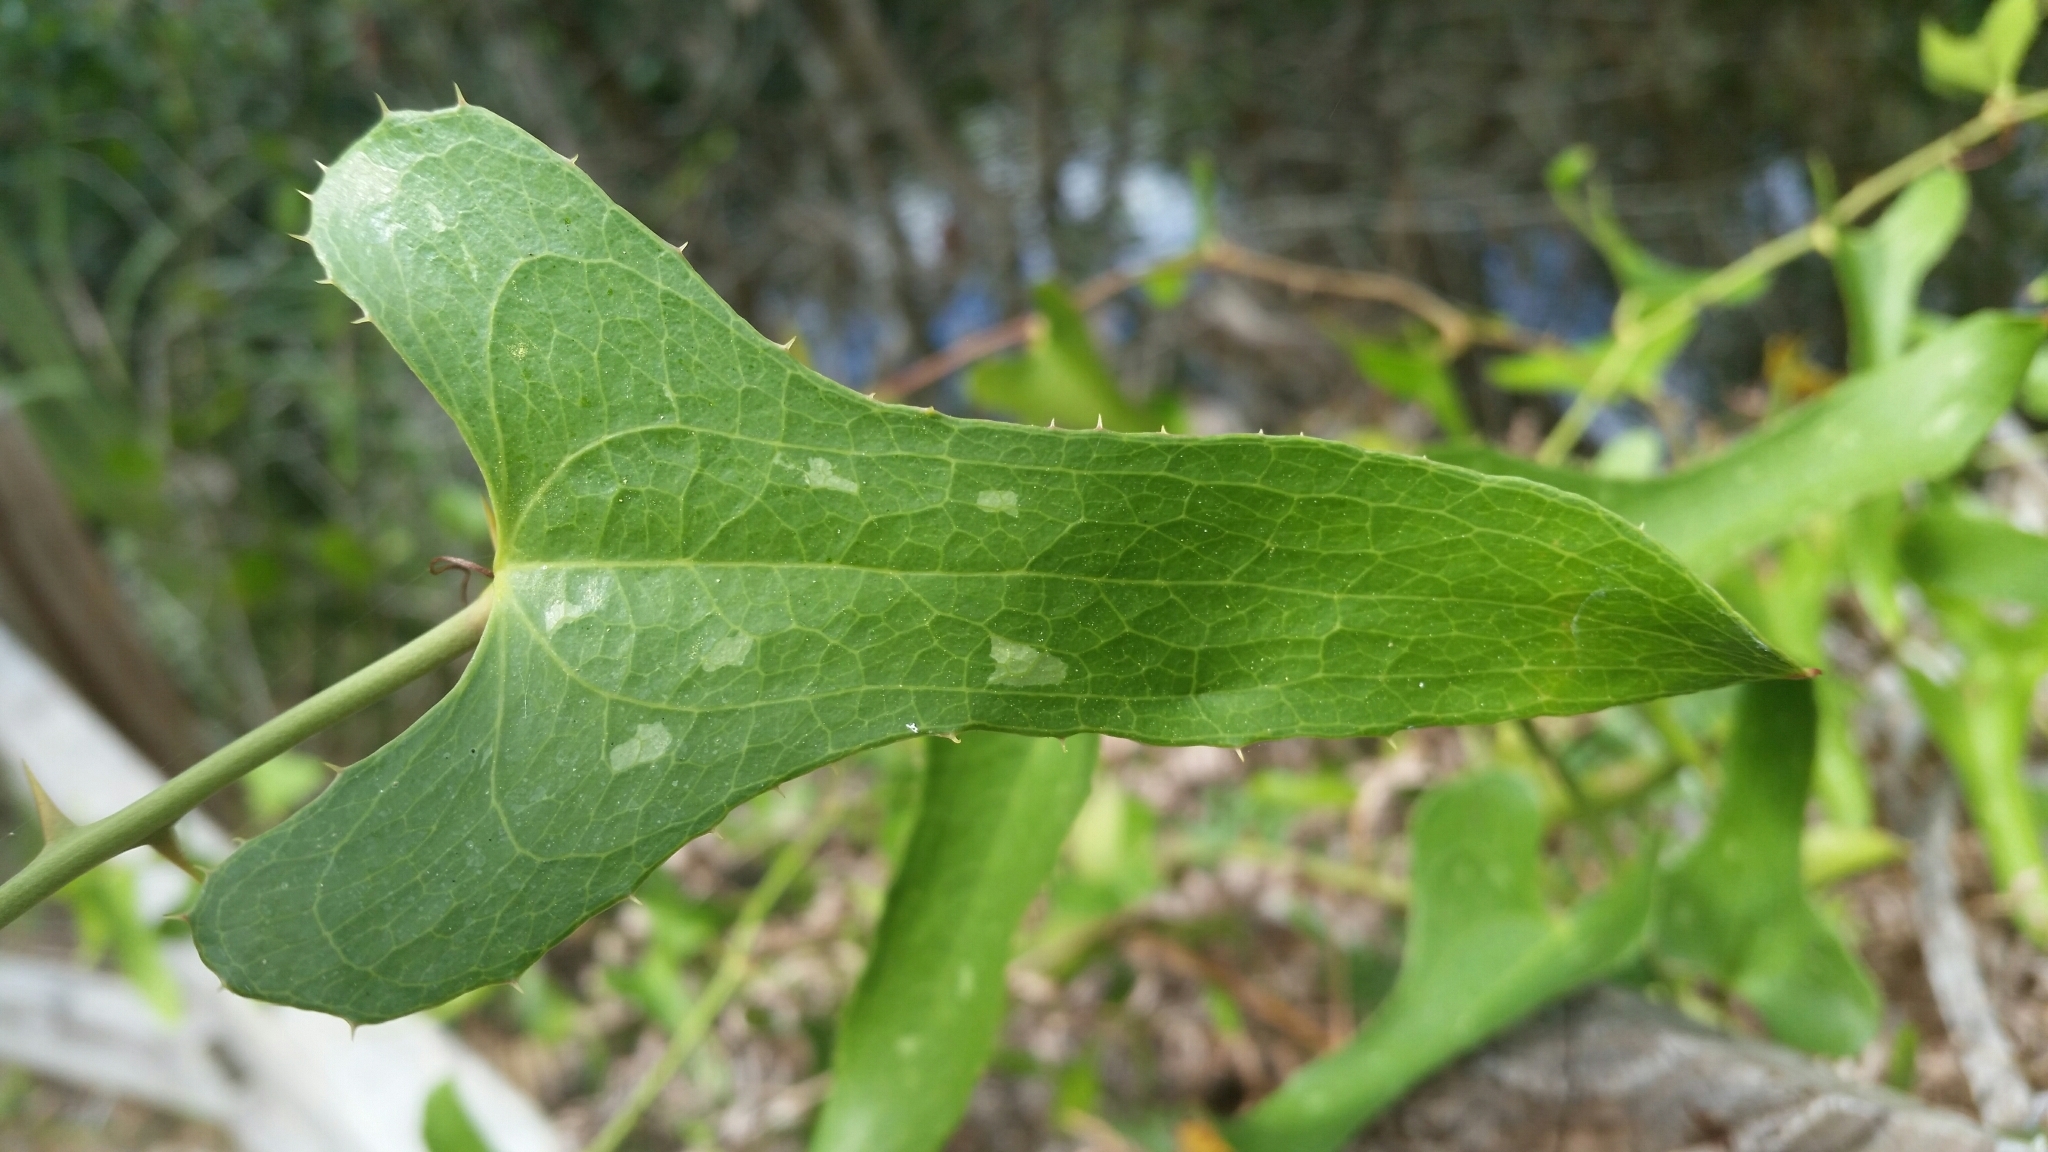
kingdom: Plantae
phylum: Tracheophyta
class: Liliopsida
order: Liliales
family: Smilacaceae
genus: Smilax
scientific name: Smilax bona-nox
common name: Catbrier
